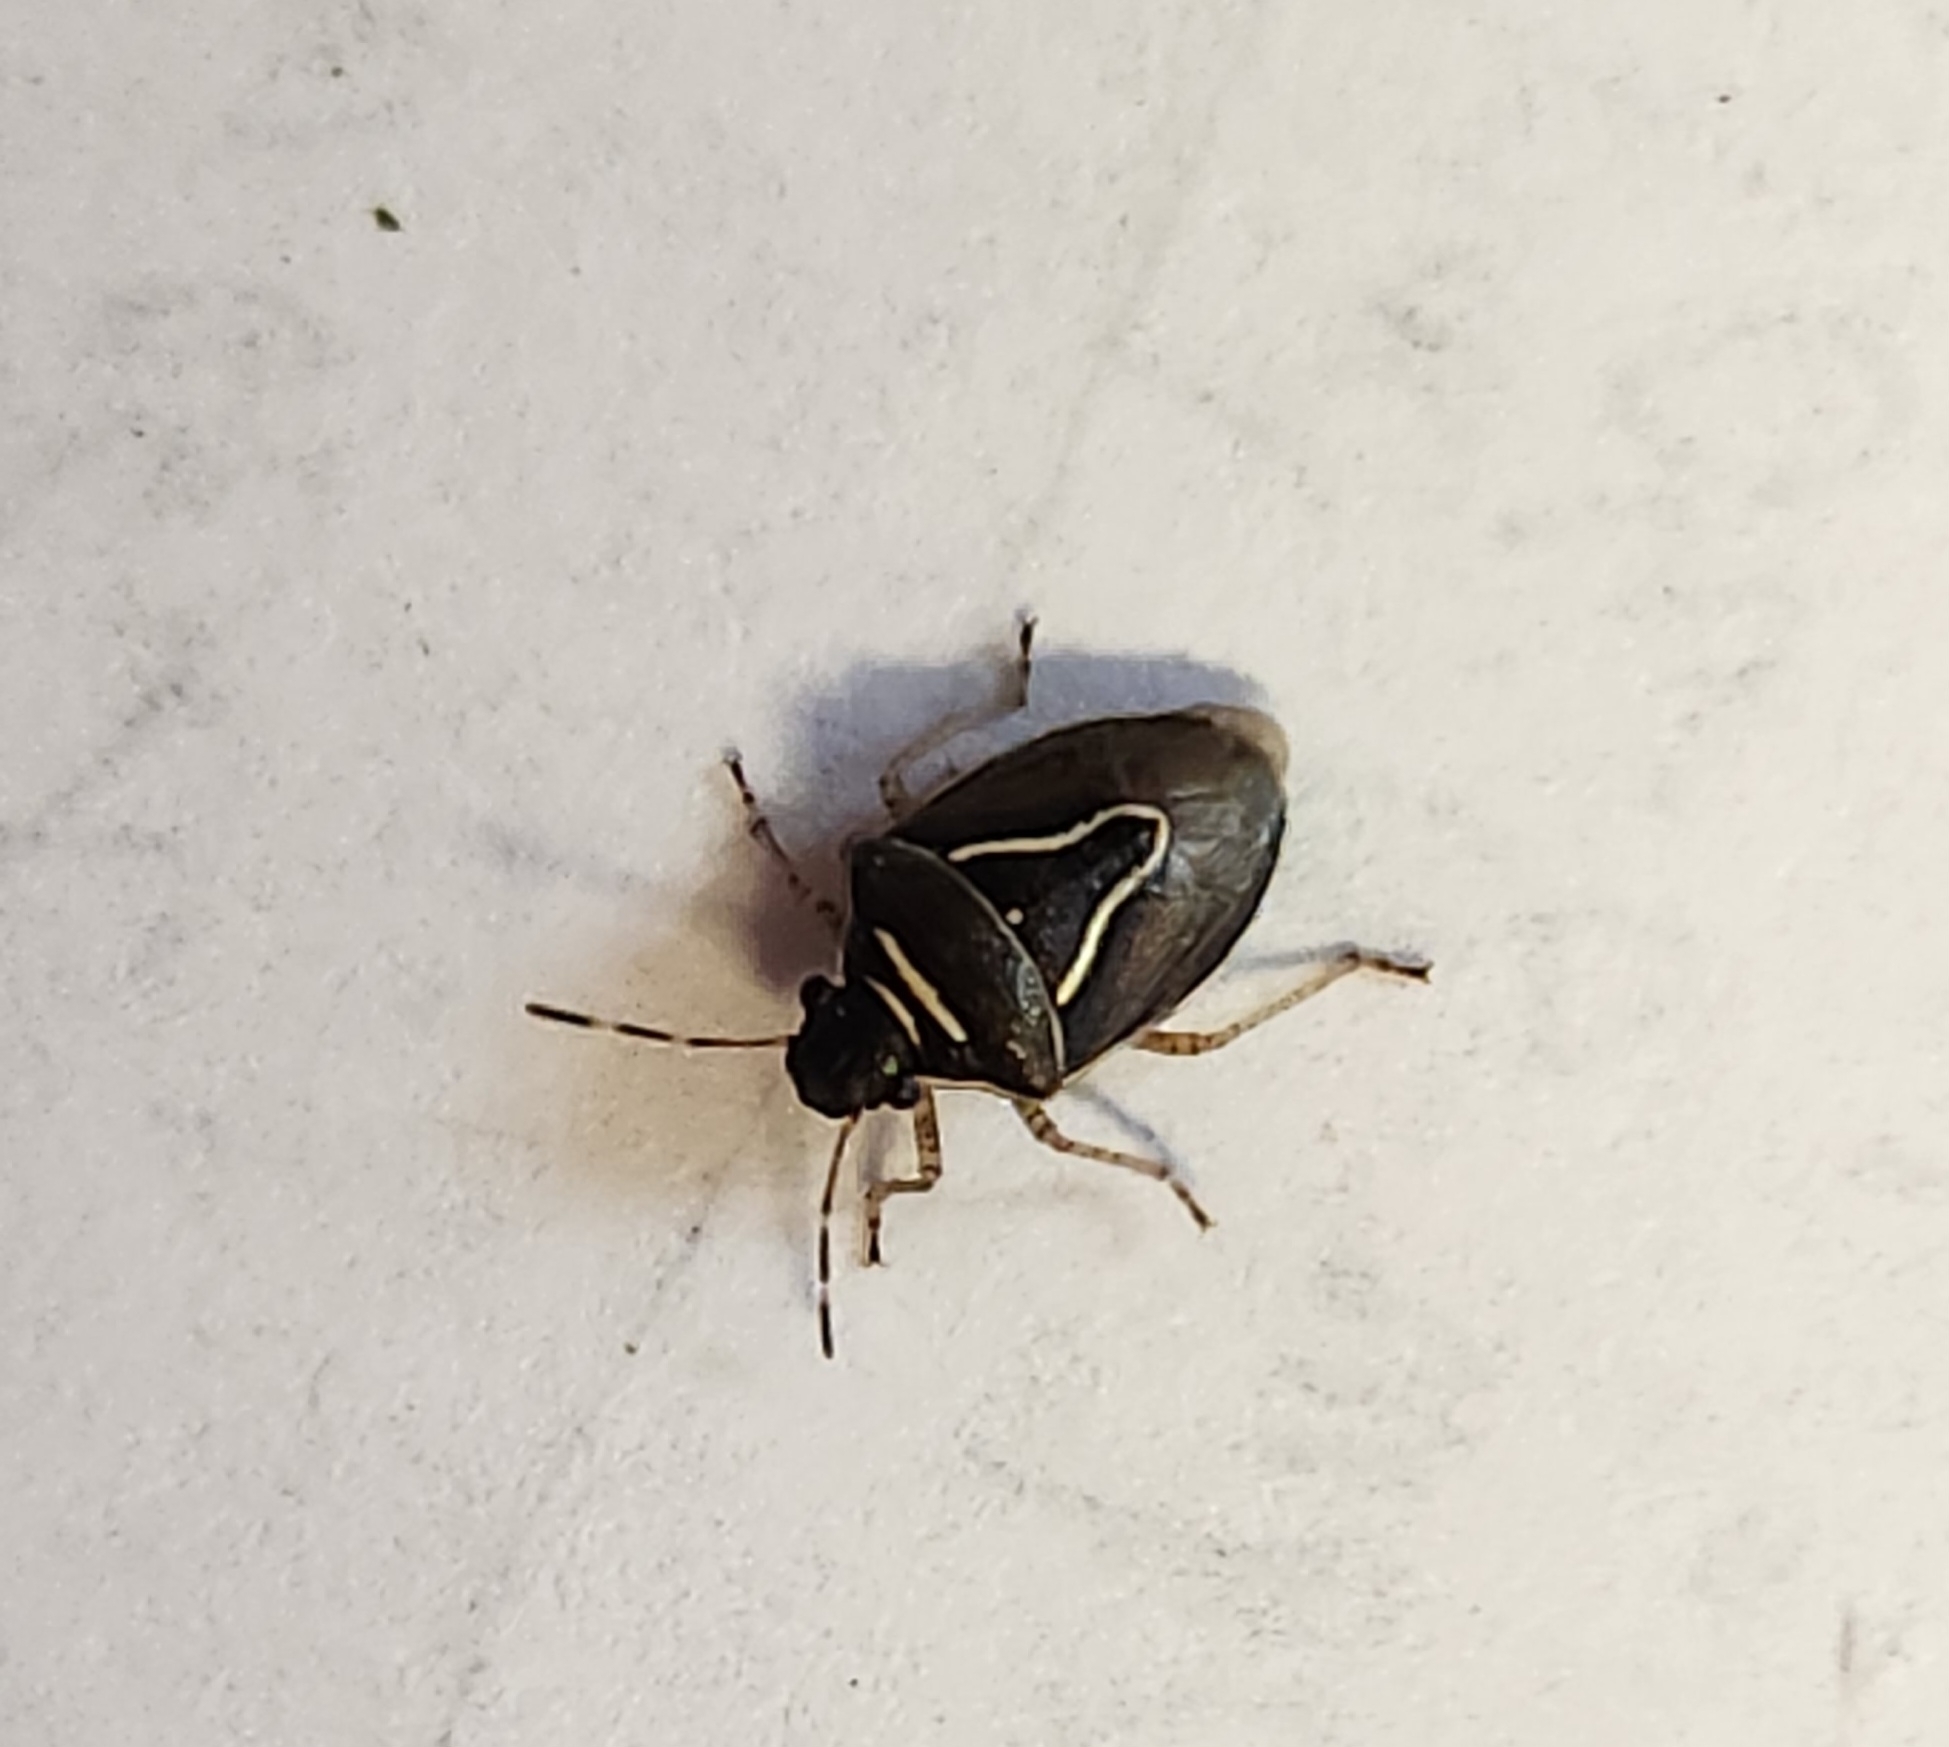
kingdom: Animalia
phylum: Arthropoda
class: Insecta
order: Hemiptera
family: Pentatomidae
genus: Mormidea
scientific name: Mormidea lugens
